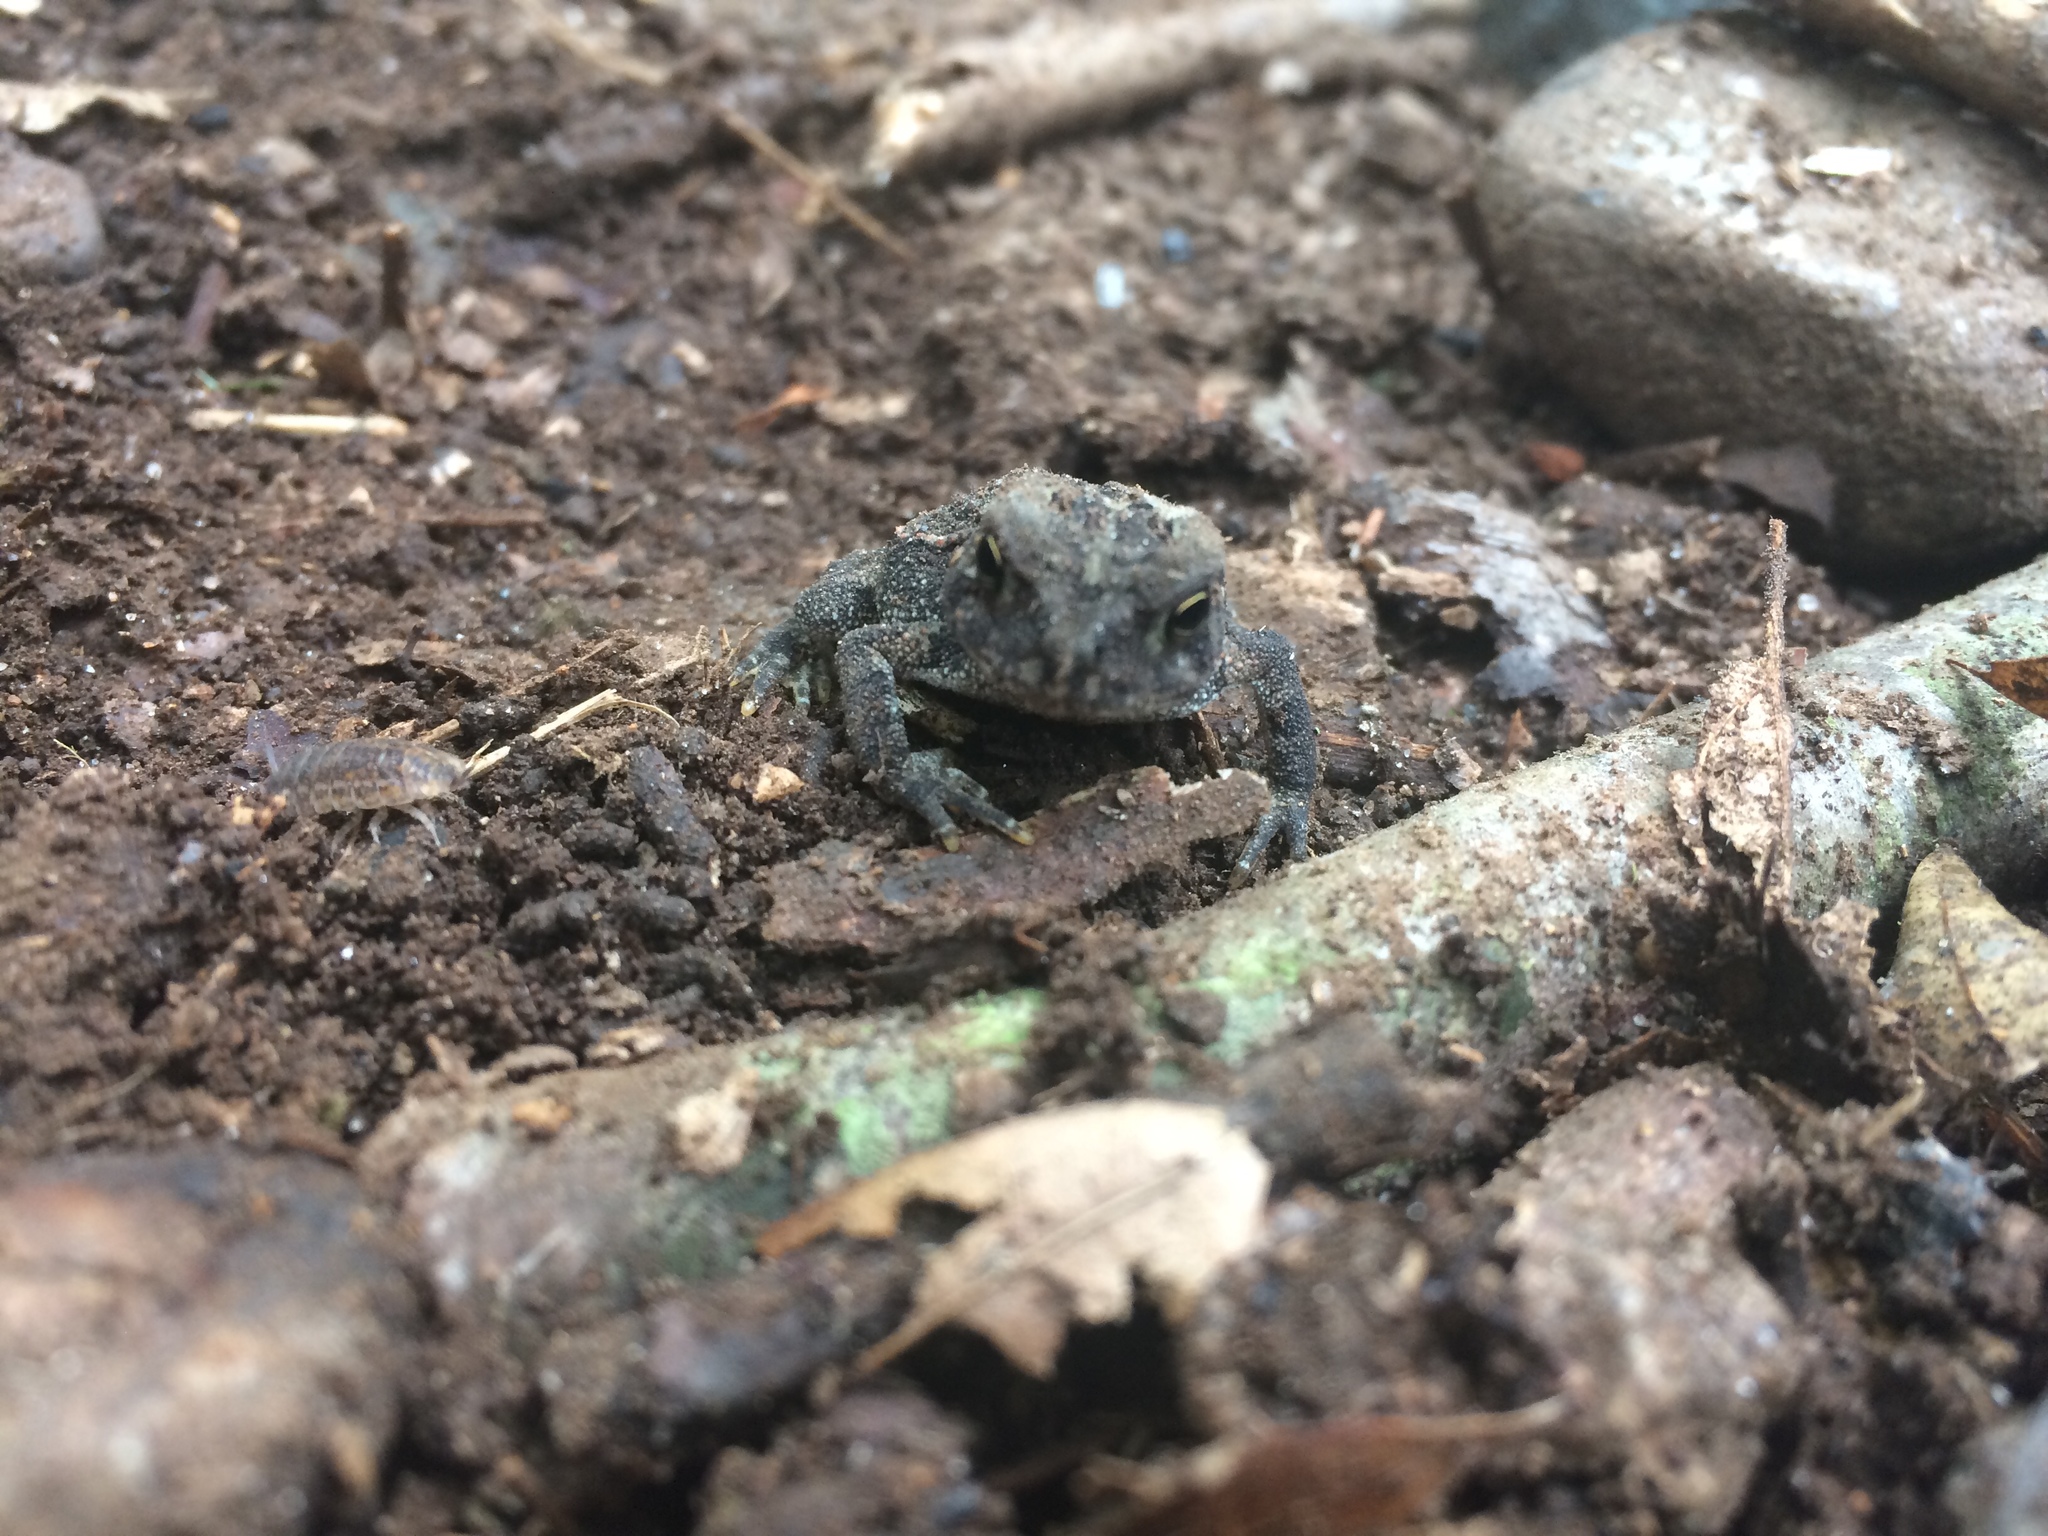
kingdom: Animalia
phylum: Chordata
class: Amphibia
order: Anura
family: Bufonidae
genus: Anaxyrus
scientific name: Anaxyrus americanus
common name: American toad
